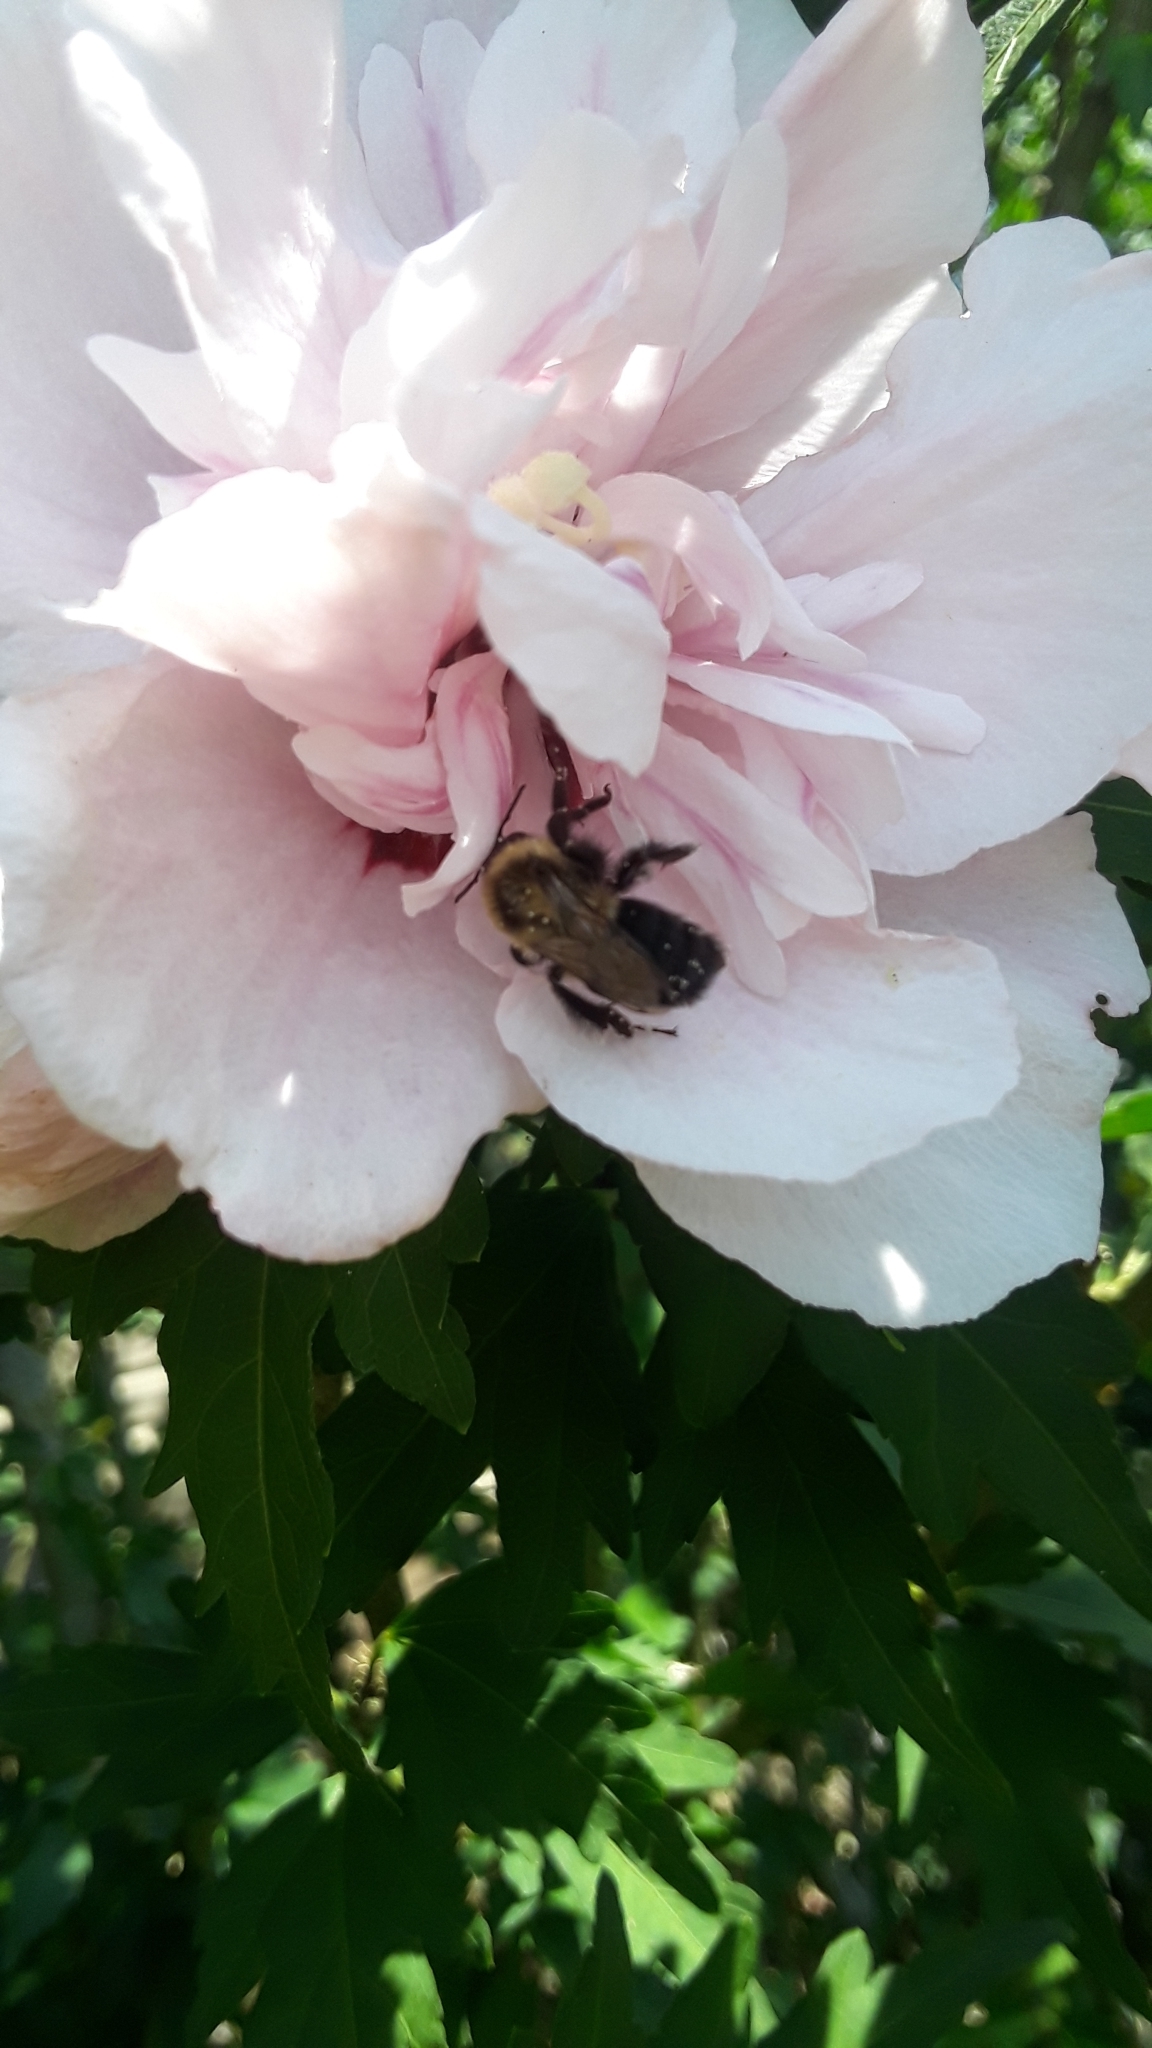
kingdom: Animalia
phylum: Arthropoda
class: Insecta
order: Hymenoptera
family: Apidae
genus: Bombus
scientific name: Bombus impatiens
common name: Common eastern bumble bee
